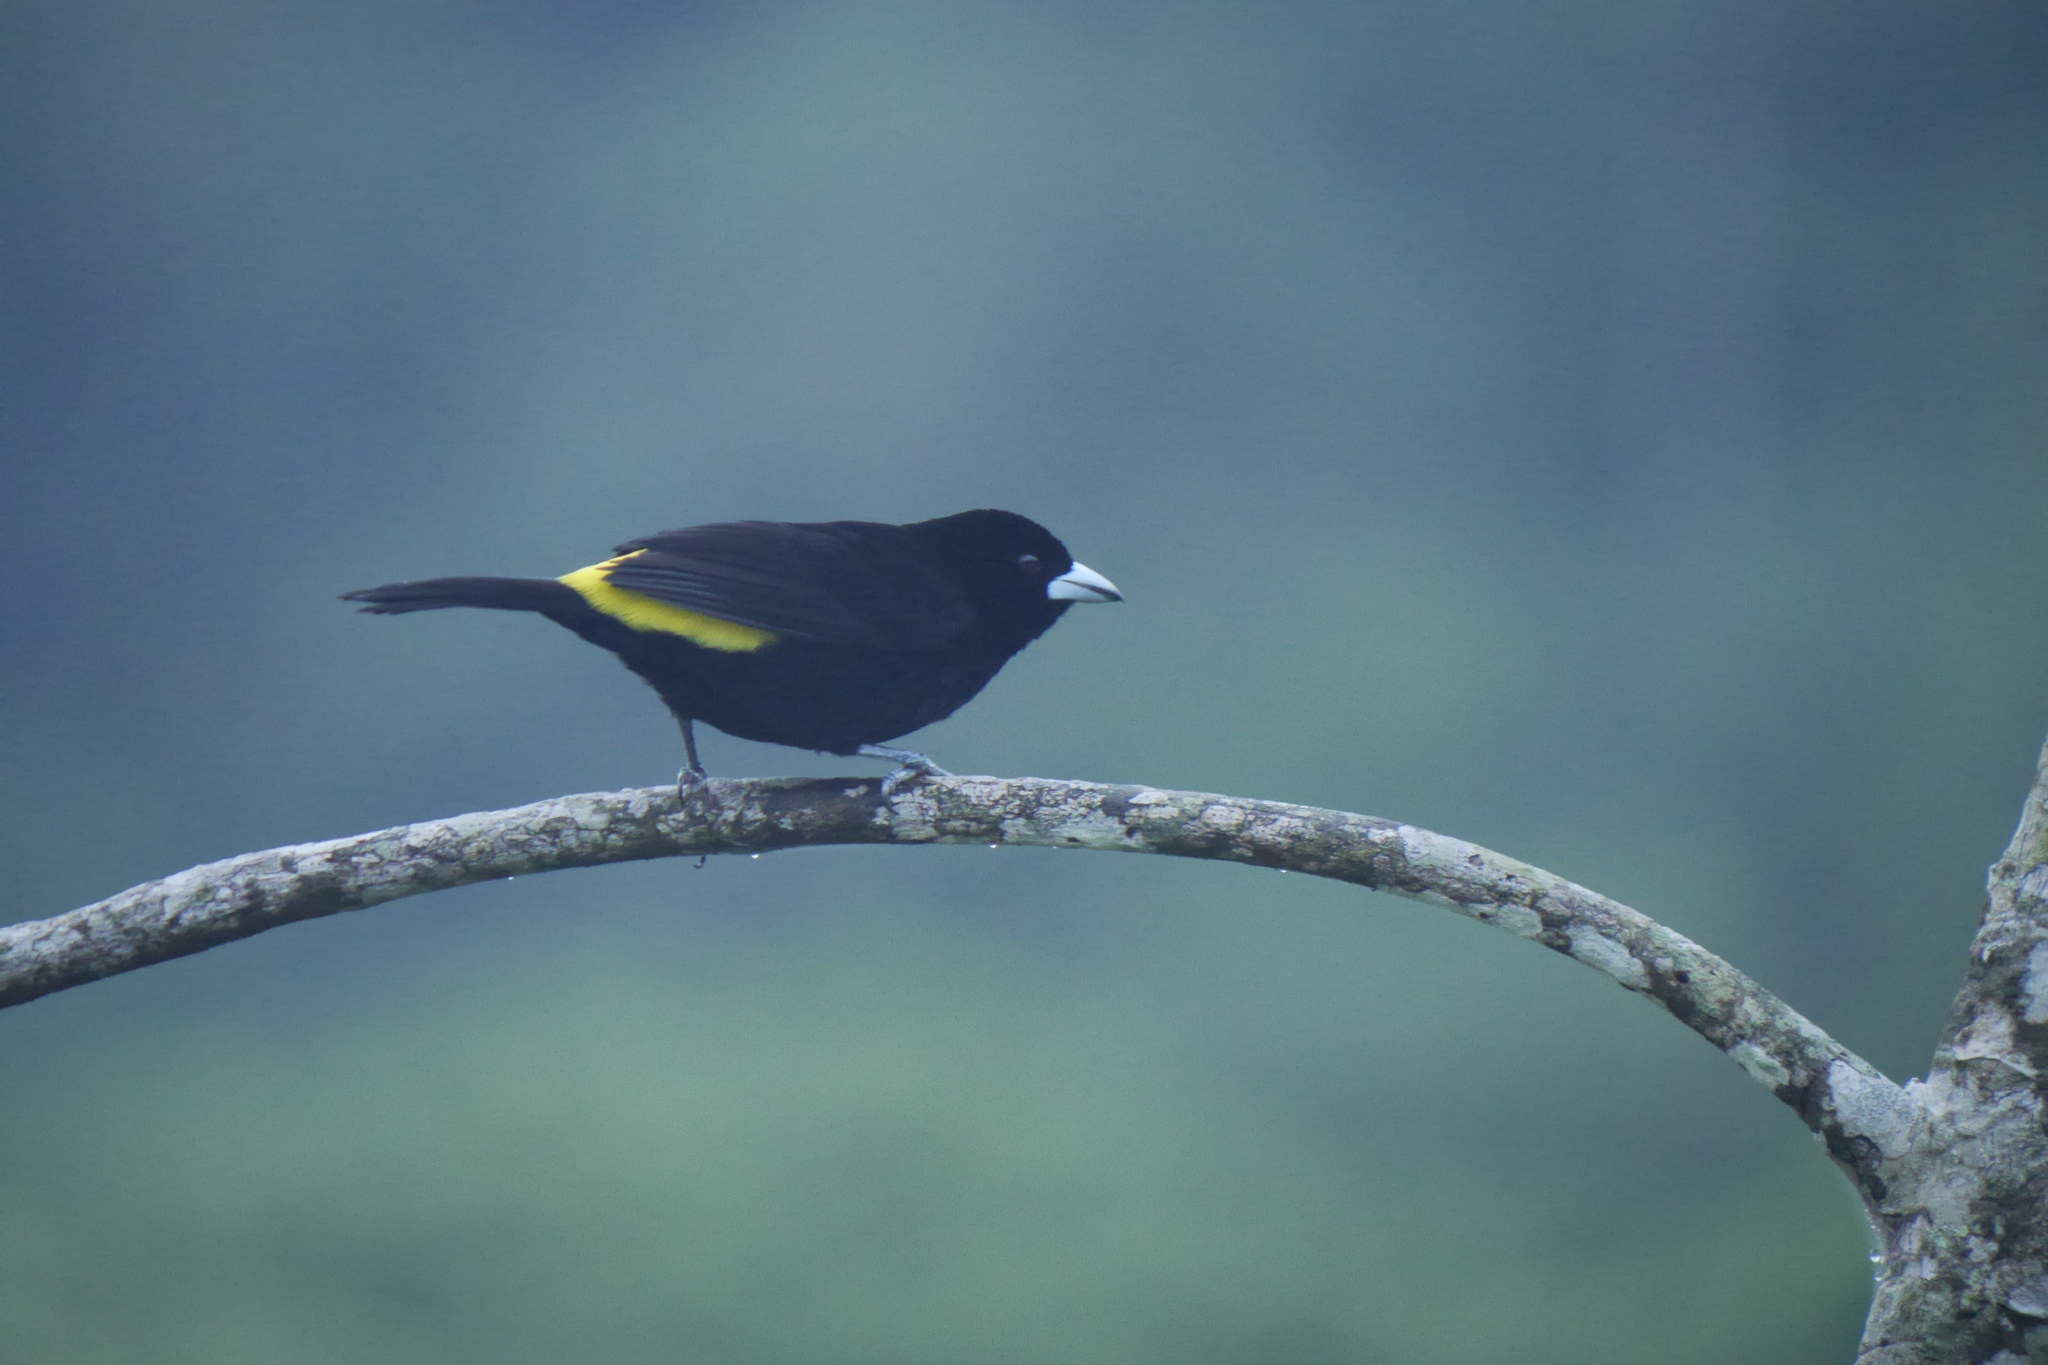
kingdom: Animalia
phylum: Chordata
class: Aves
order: Passeriformes
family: Thraupidae
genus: Ramphocelus
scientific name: Ramphocelus flammigerus
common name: Flame-rumped tanager
